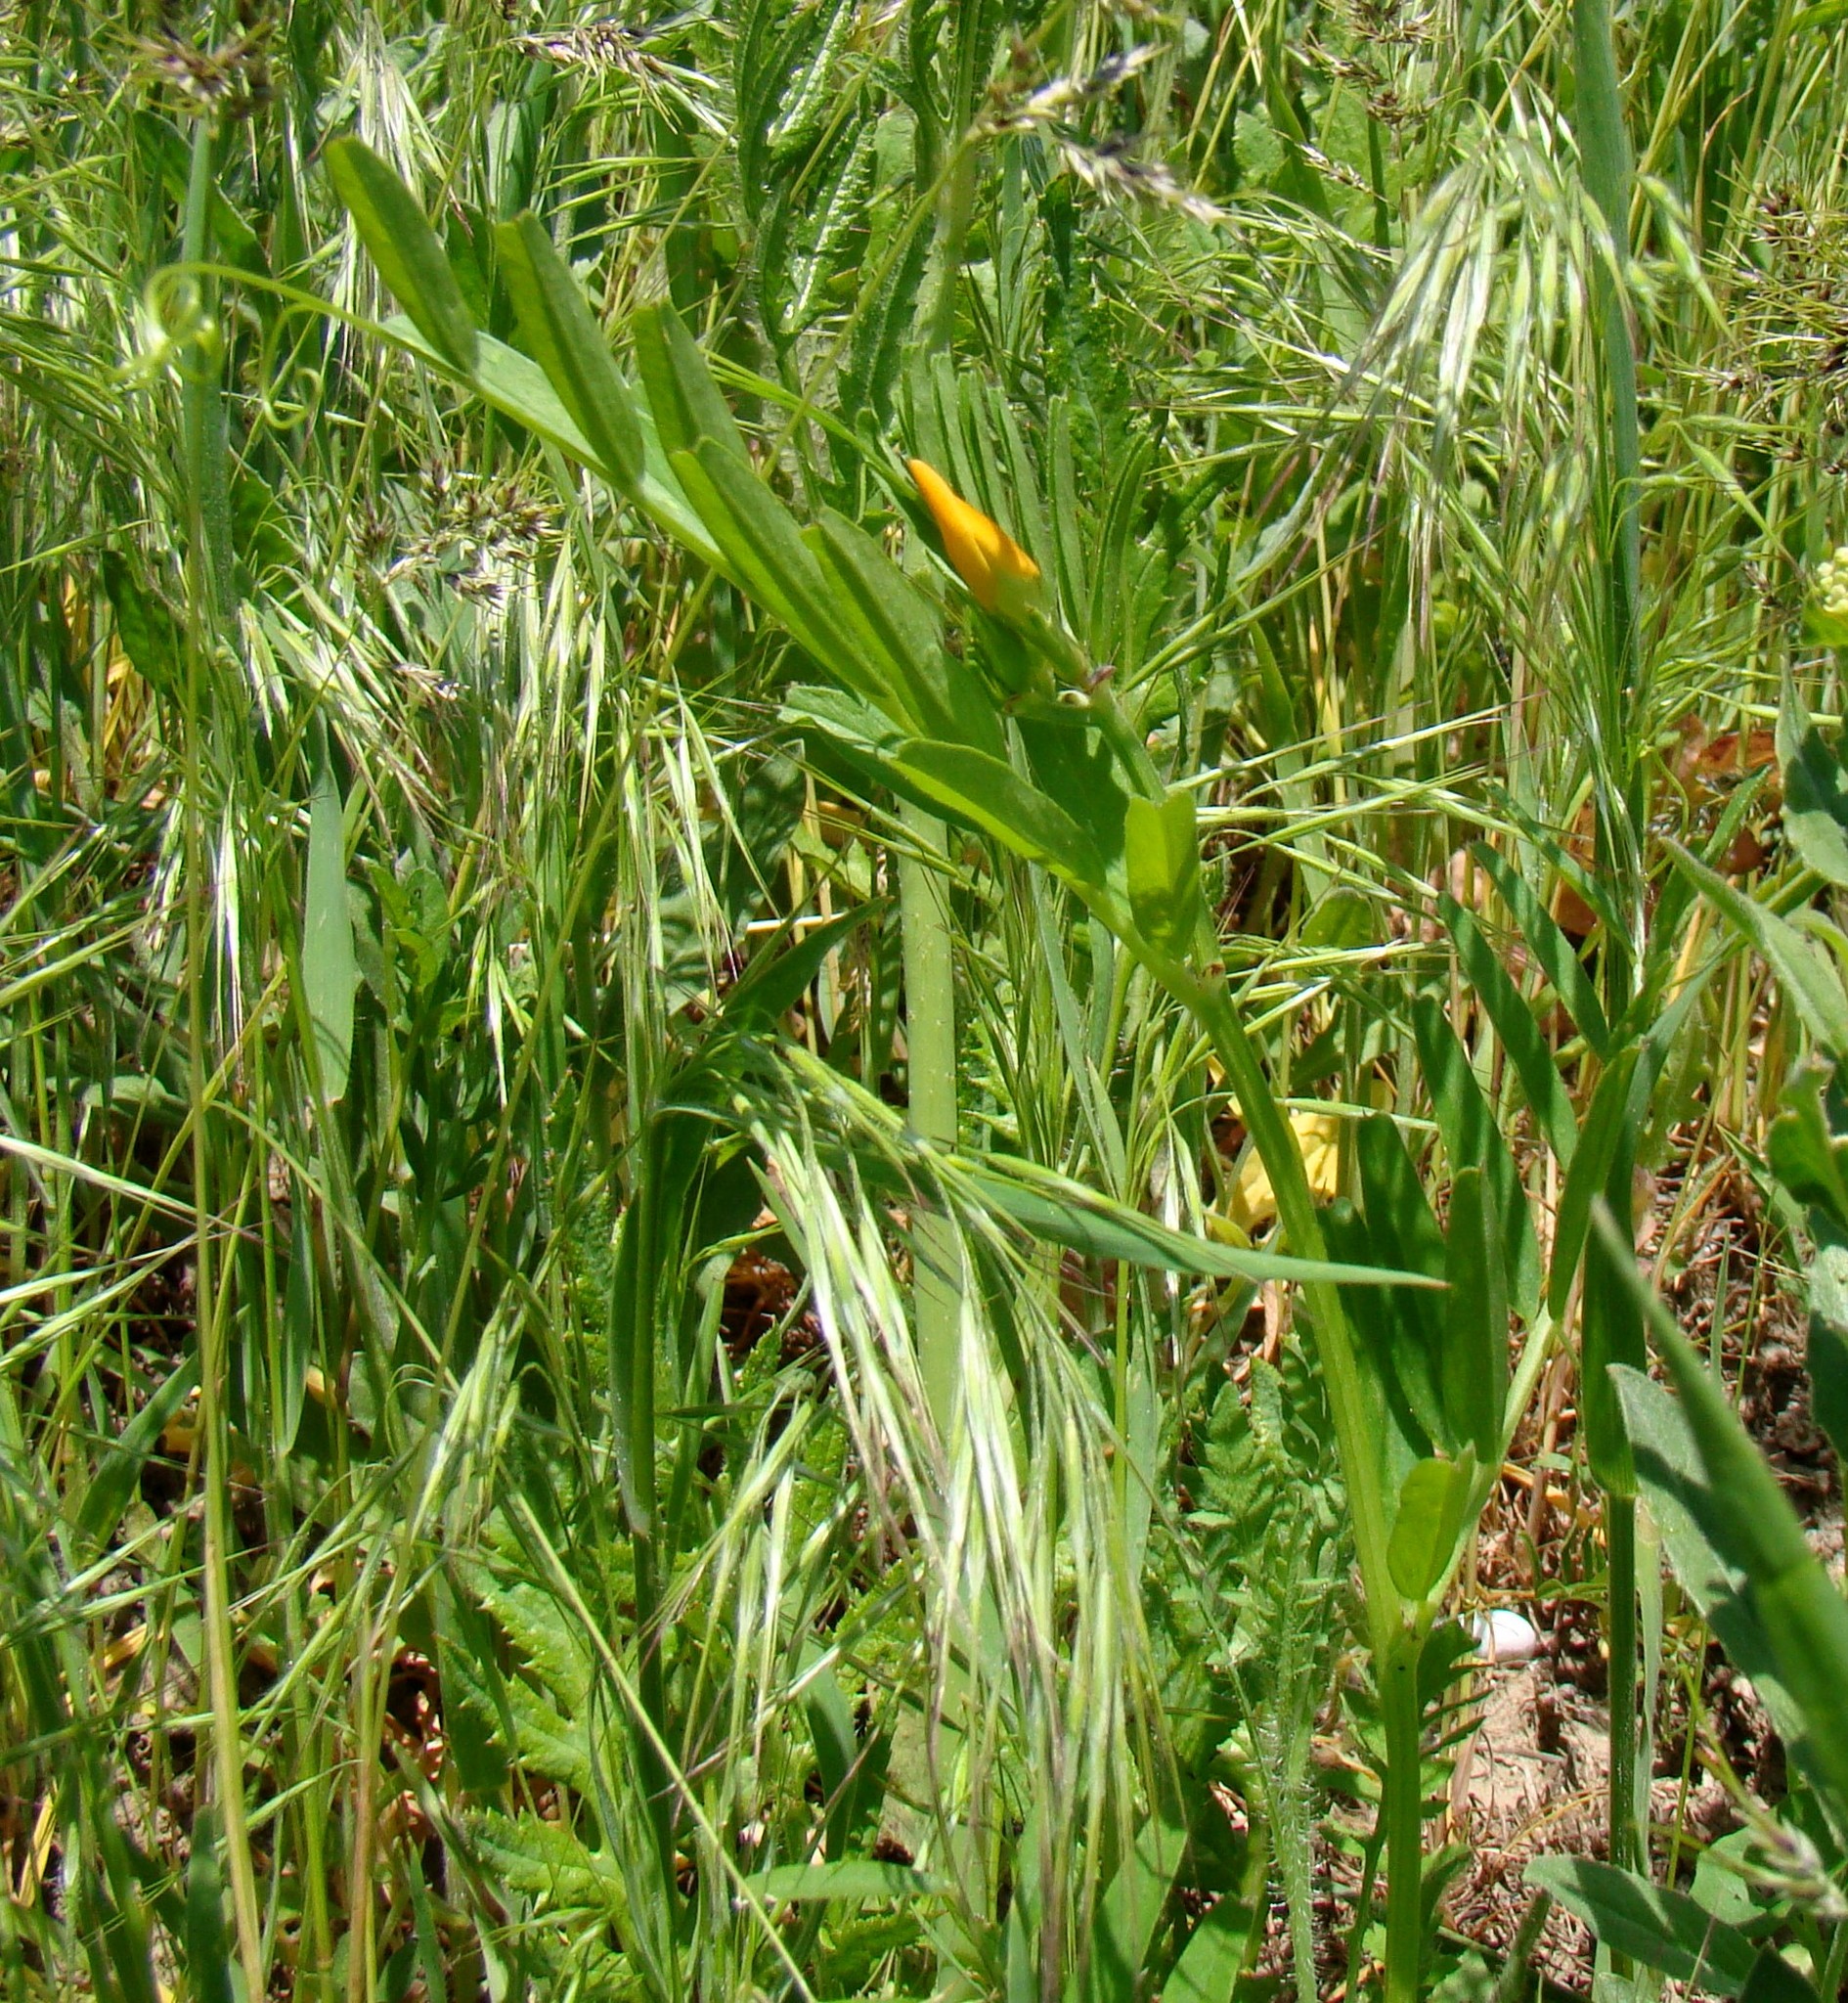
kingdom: Plantae
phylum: Tracheophyta
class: Magnoliopsida
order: Fabales
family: Fabaceae
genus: Vicia
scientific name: Vicia grandiflora
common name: Large yellow vetch
